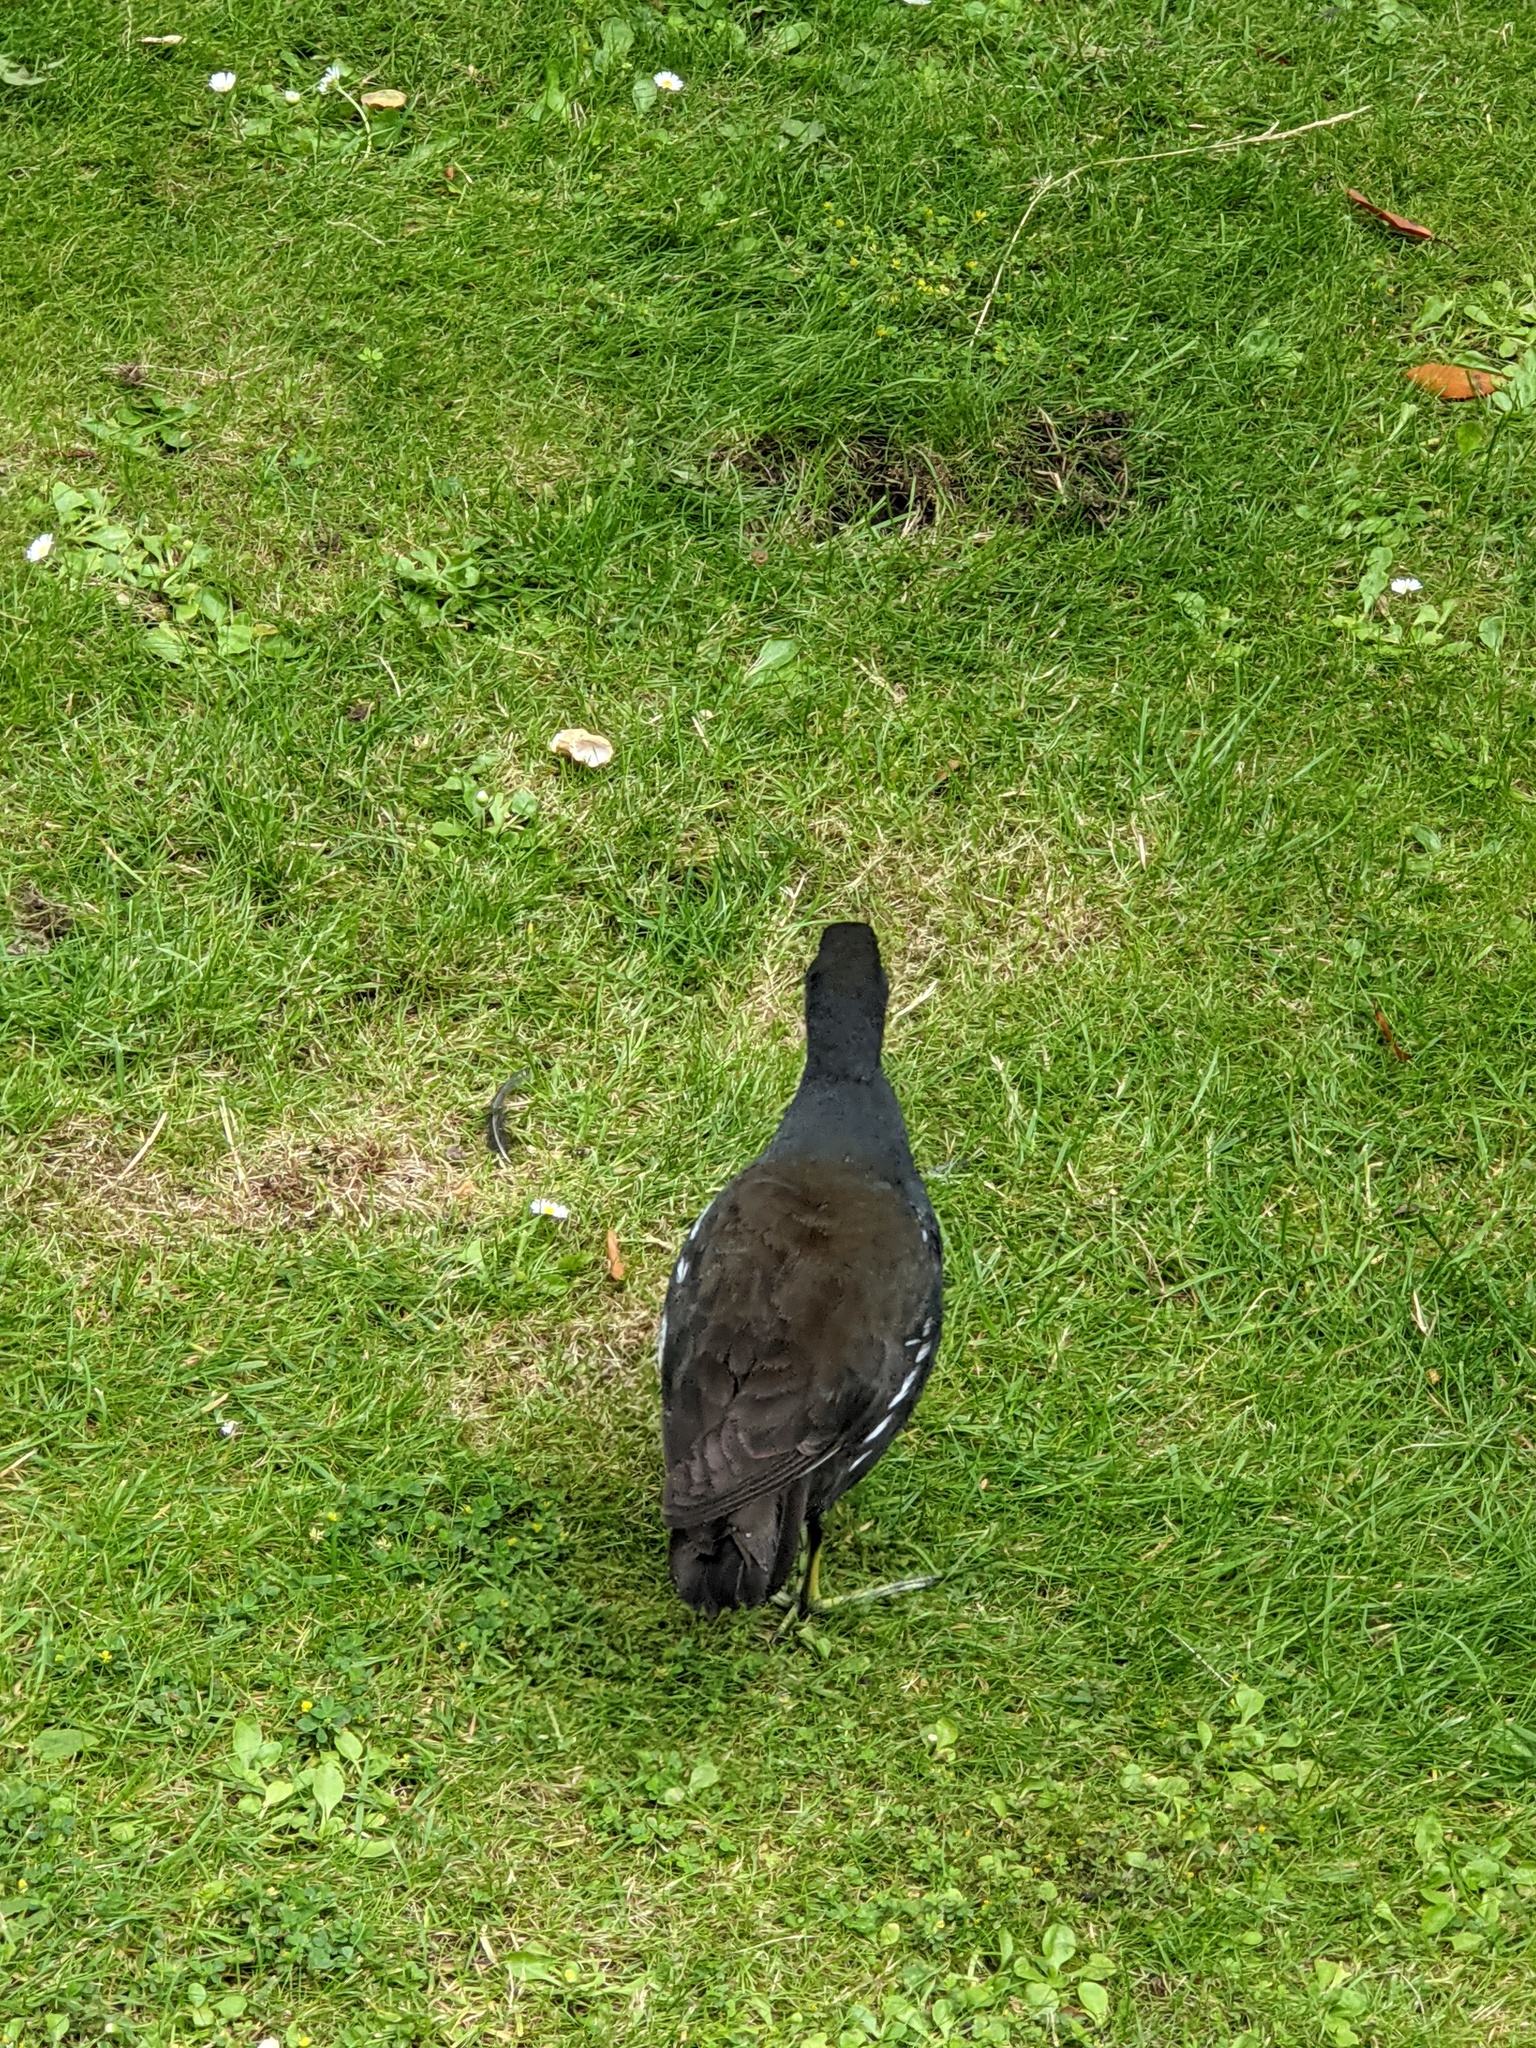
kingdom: Animalia
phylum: Chordata
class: Aves
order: Gruiformes
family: Rallidae
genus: Gallinula
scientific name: Gallinula chloropus
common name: Common moorhen
